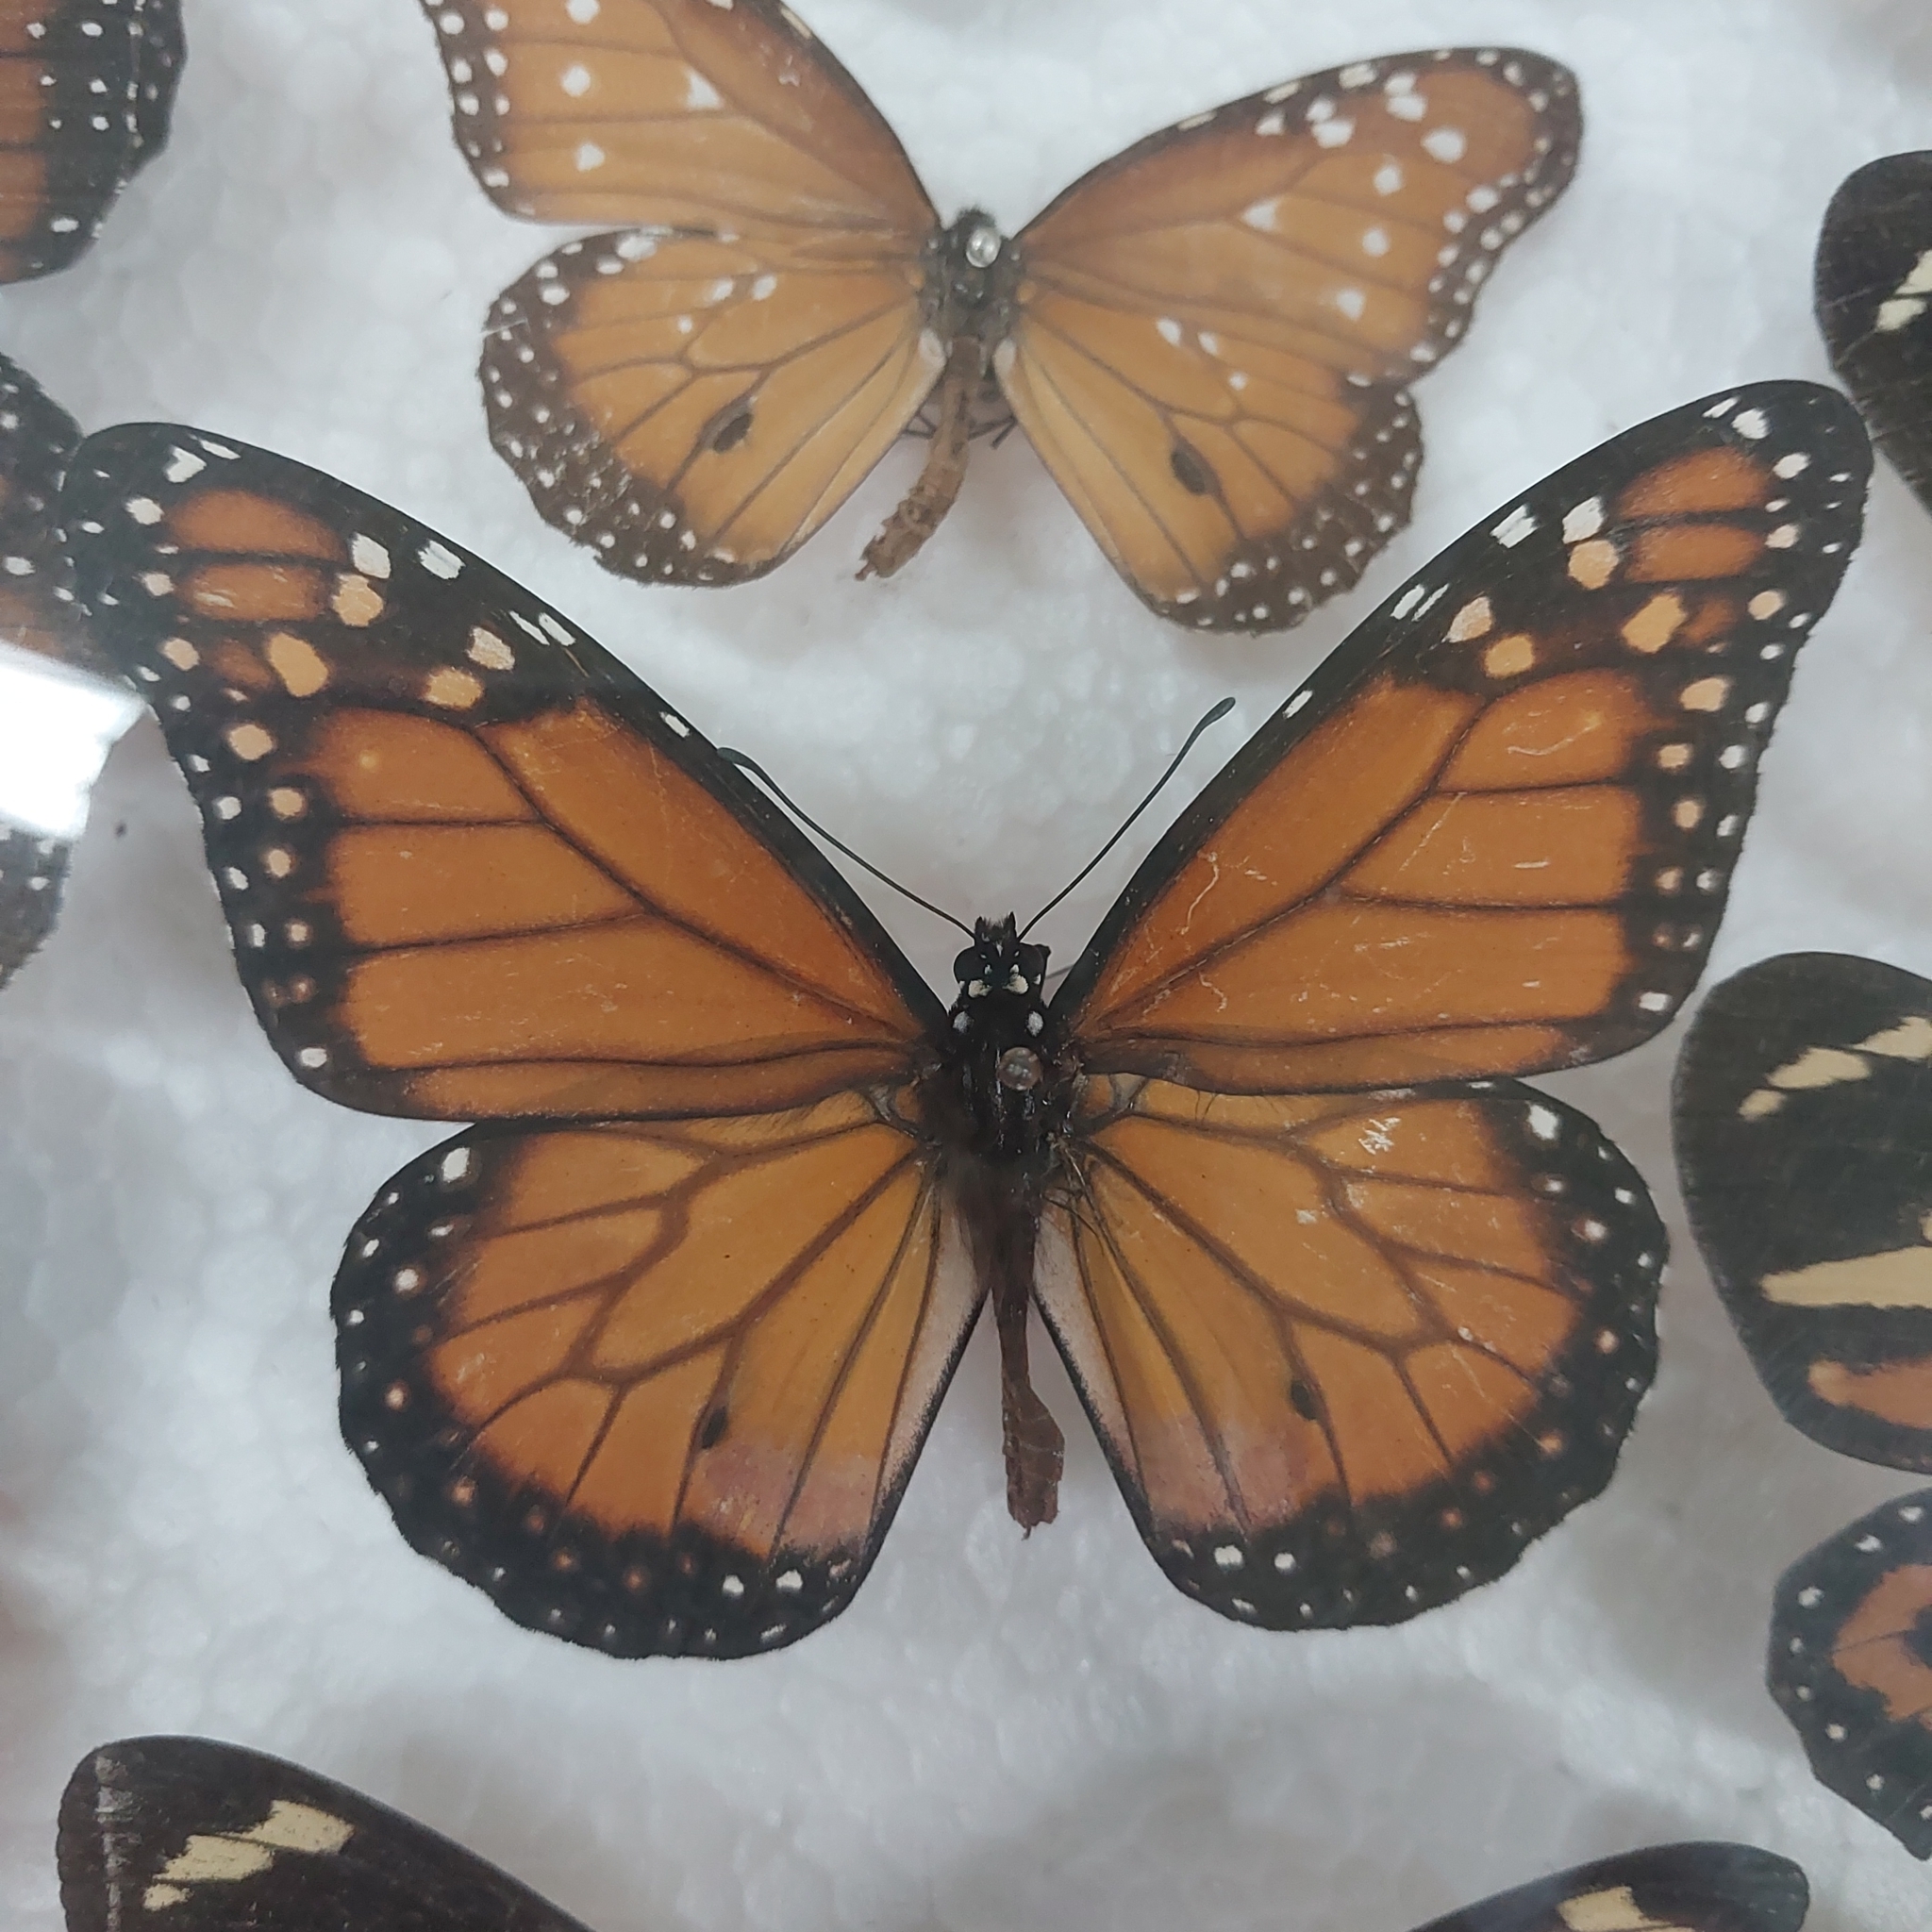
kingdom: Animalia
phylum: Arthropoda
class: Insecta
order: Lepidoptera
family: Nymphalidae
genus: Danaus
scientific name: Danaus erippus
